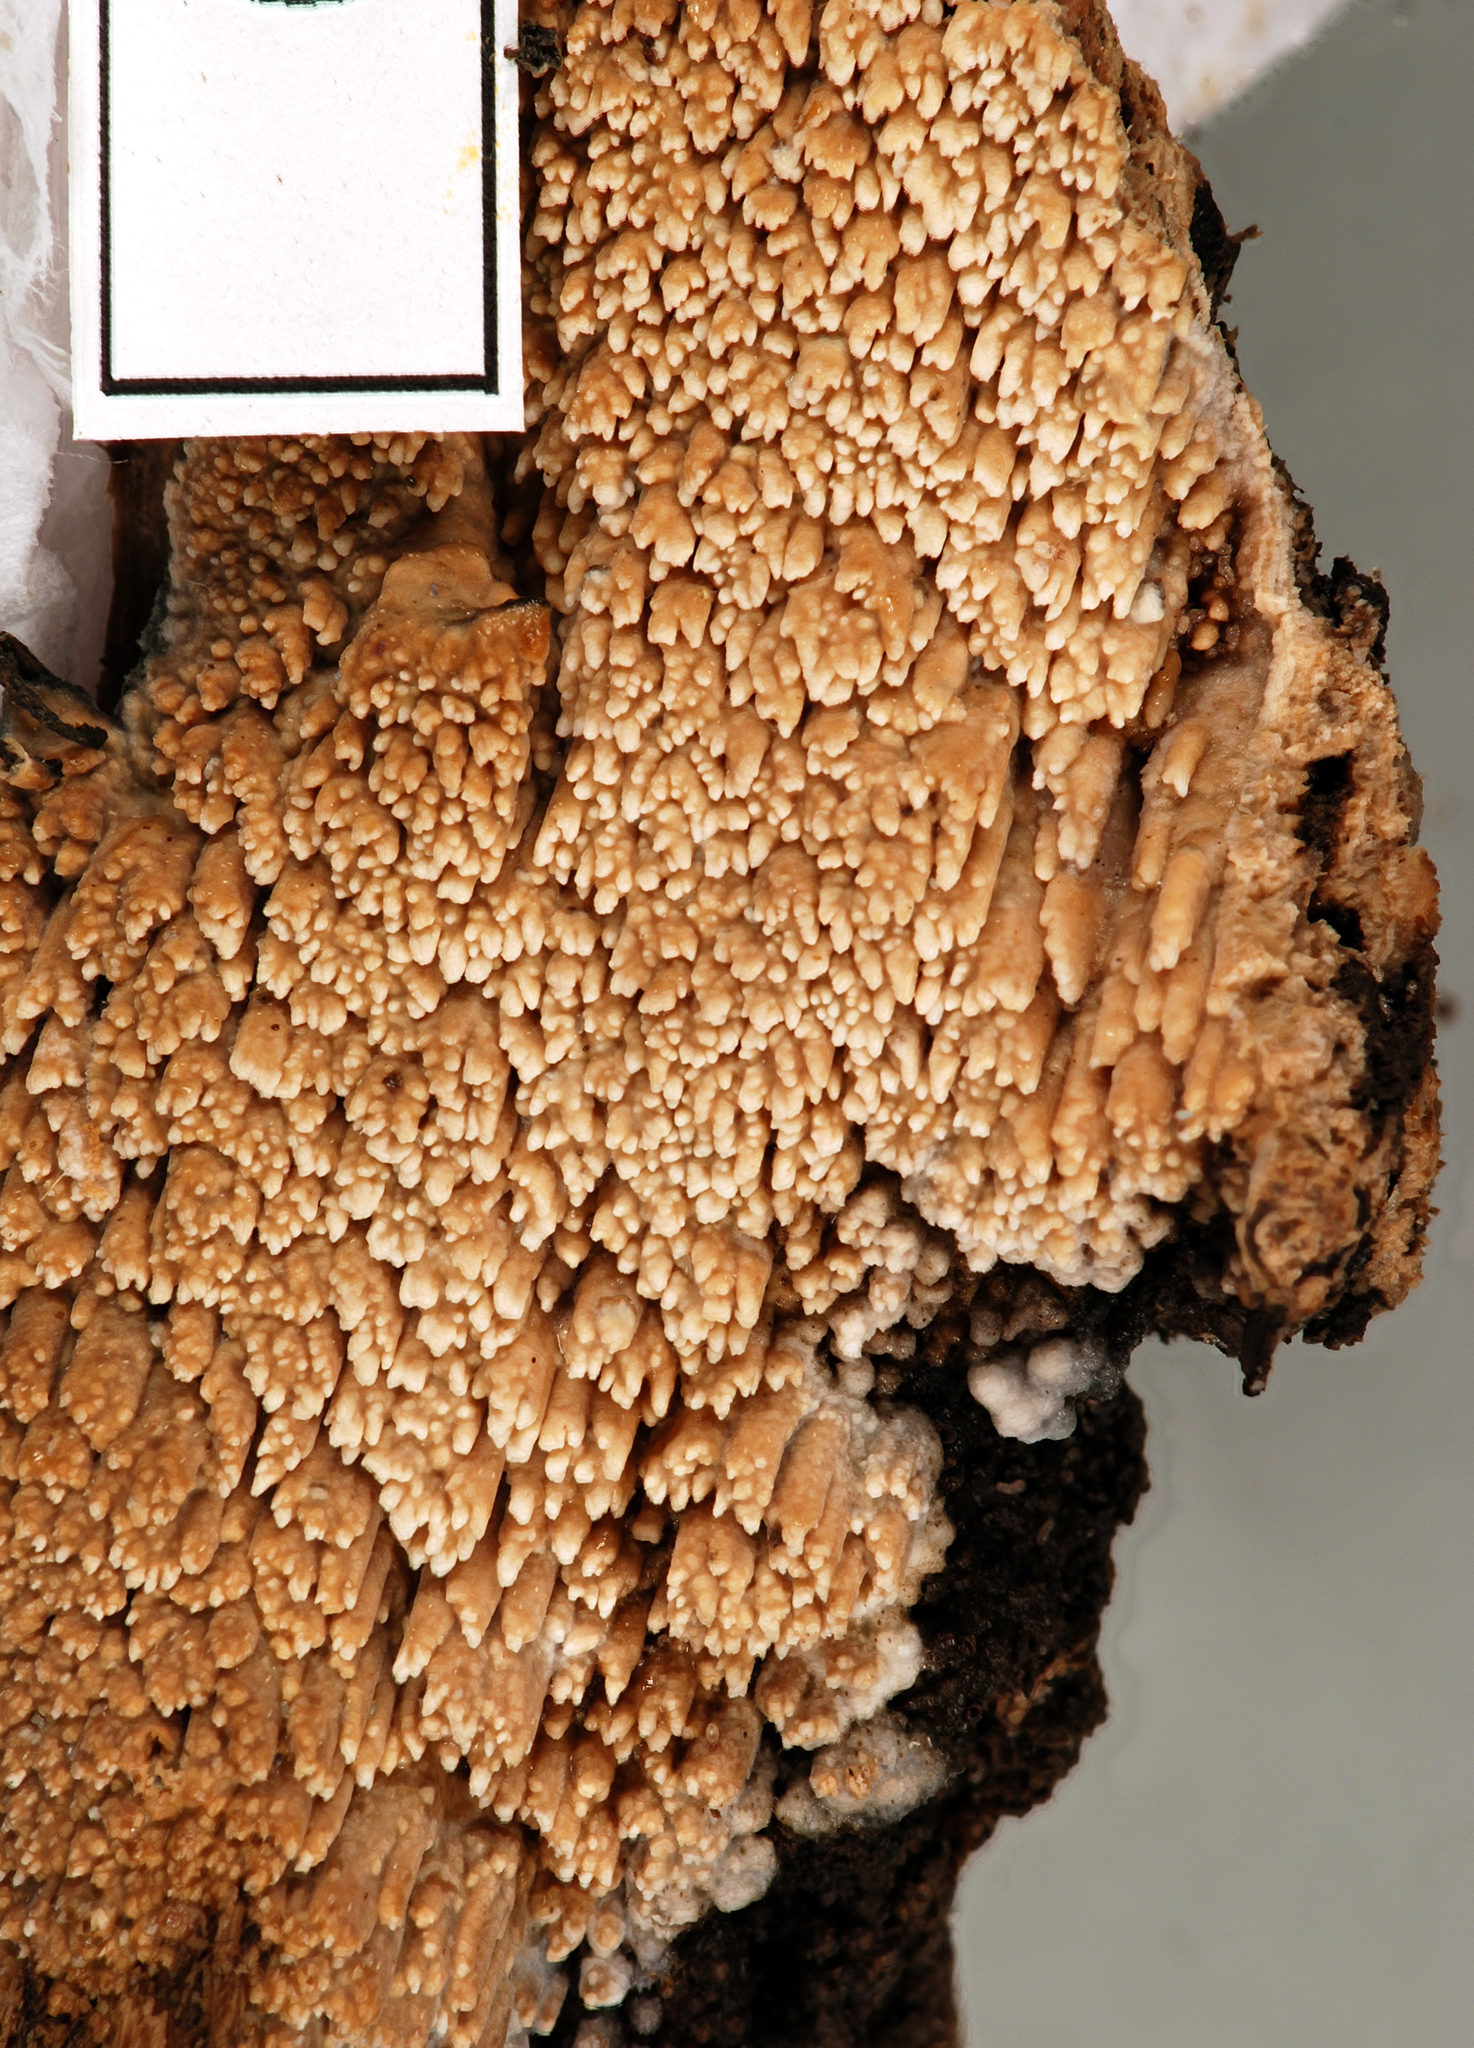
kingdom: Fungi
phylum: Basidiomycota
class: Agaricomycetes
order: Polyporales
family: Meruliaceae
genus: Mycoacia
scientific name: Mycoacia nothofagi
